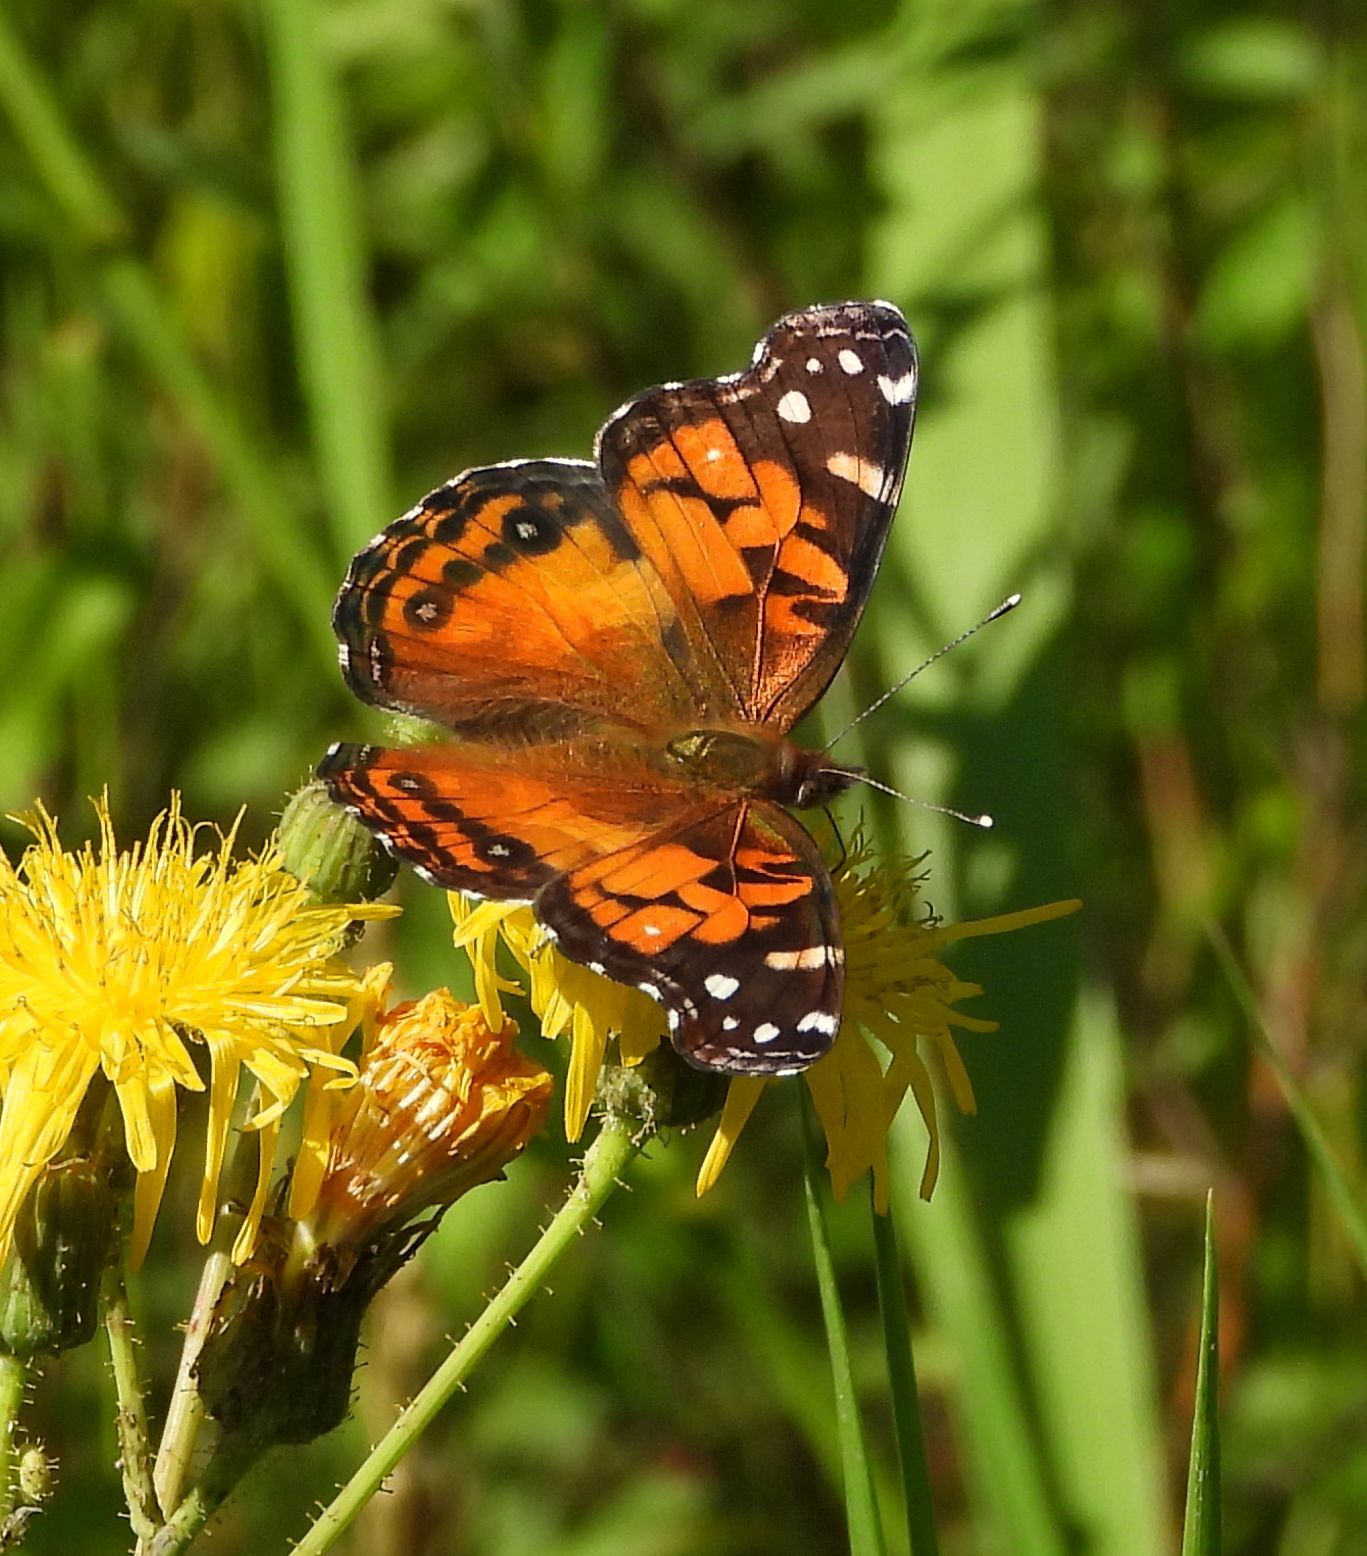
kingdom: Animalia
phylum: Arthropoda
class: Insecta
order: Lepidoptera
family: Nymphalidae
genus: Vanessa
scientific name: Vanessa virginiensis
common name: American lady
